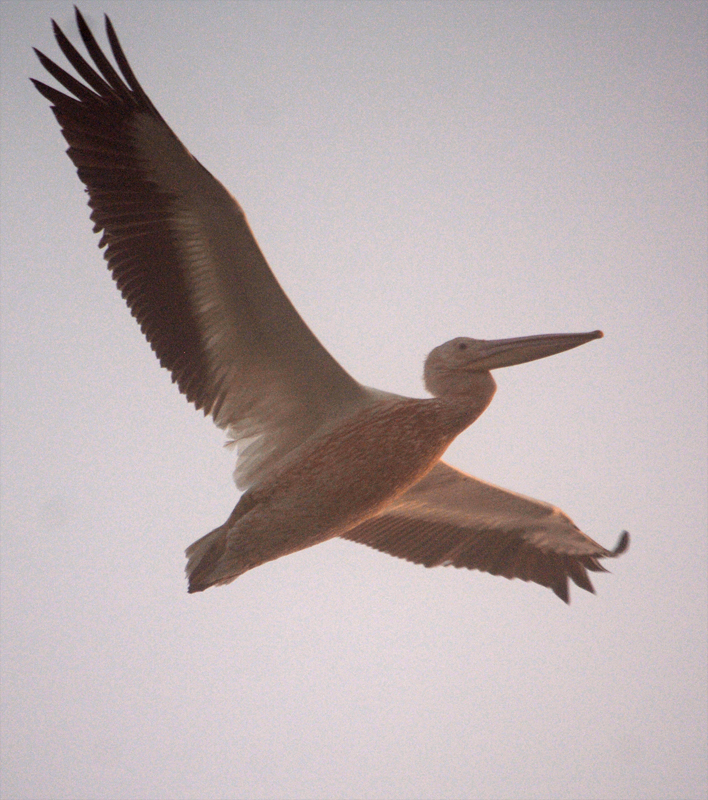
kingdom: Animalia
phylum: Chordata
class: Aves
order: Pelecaniformes
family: Pelecanidae
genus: Pelecanus
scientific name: Pelecanus erythrorhynchos
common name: American white pelican
